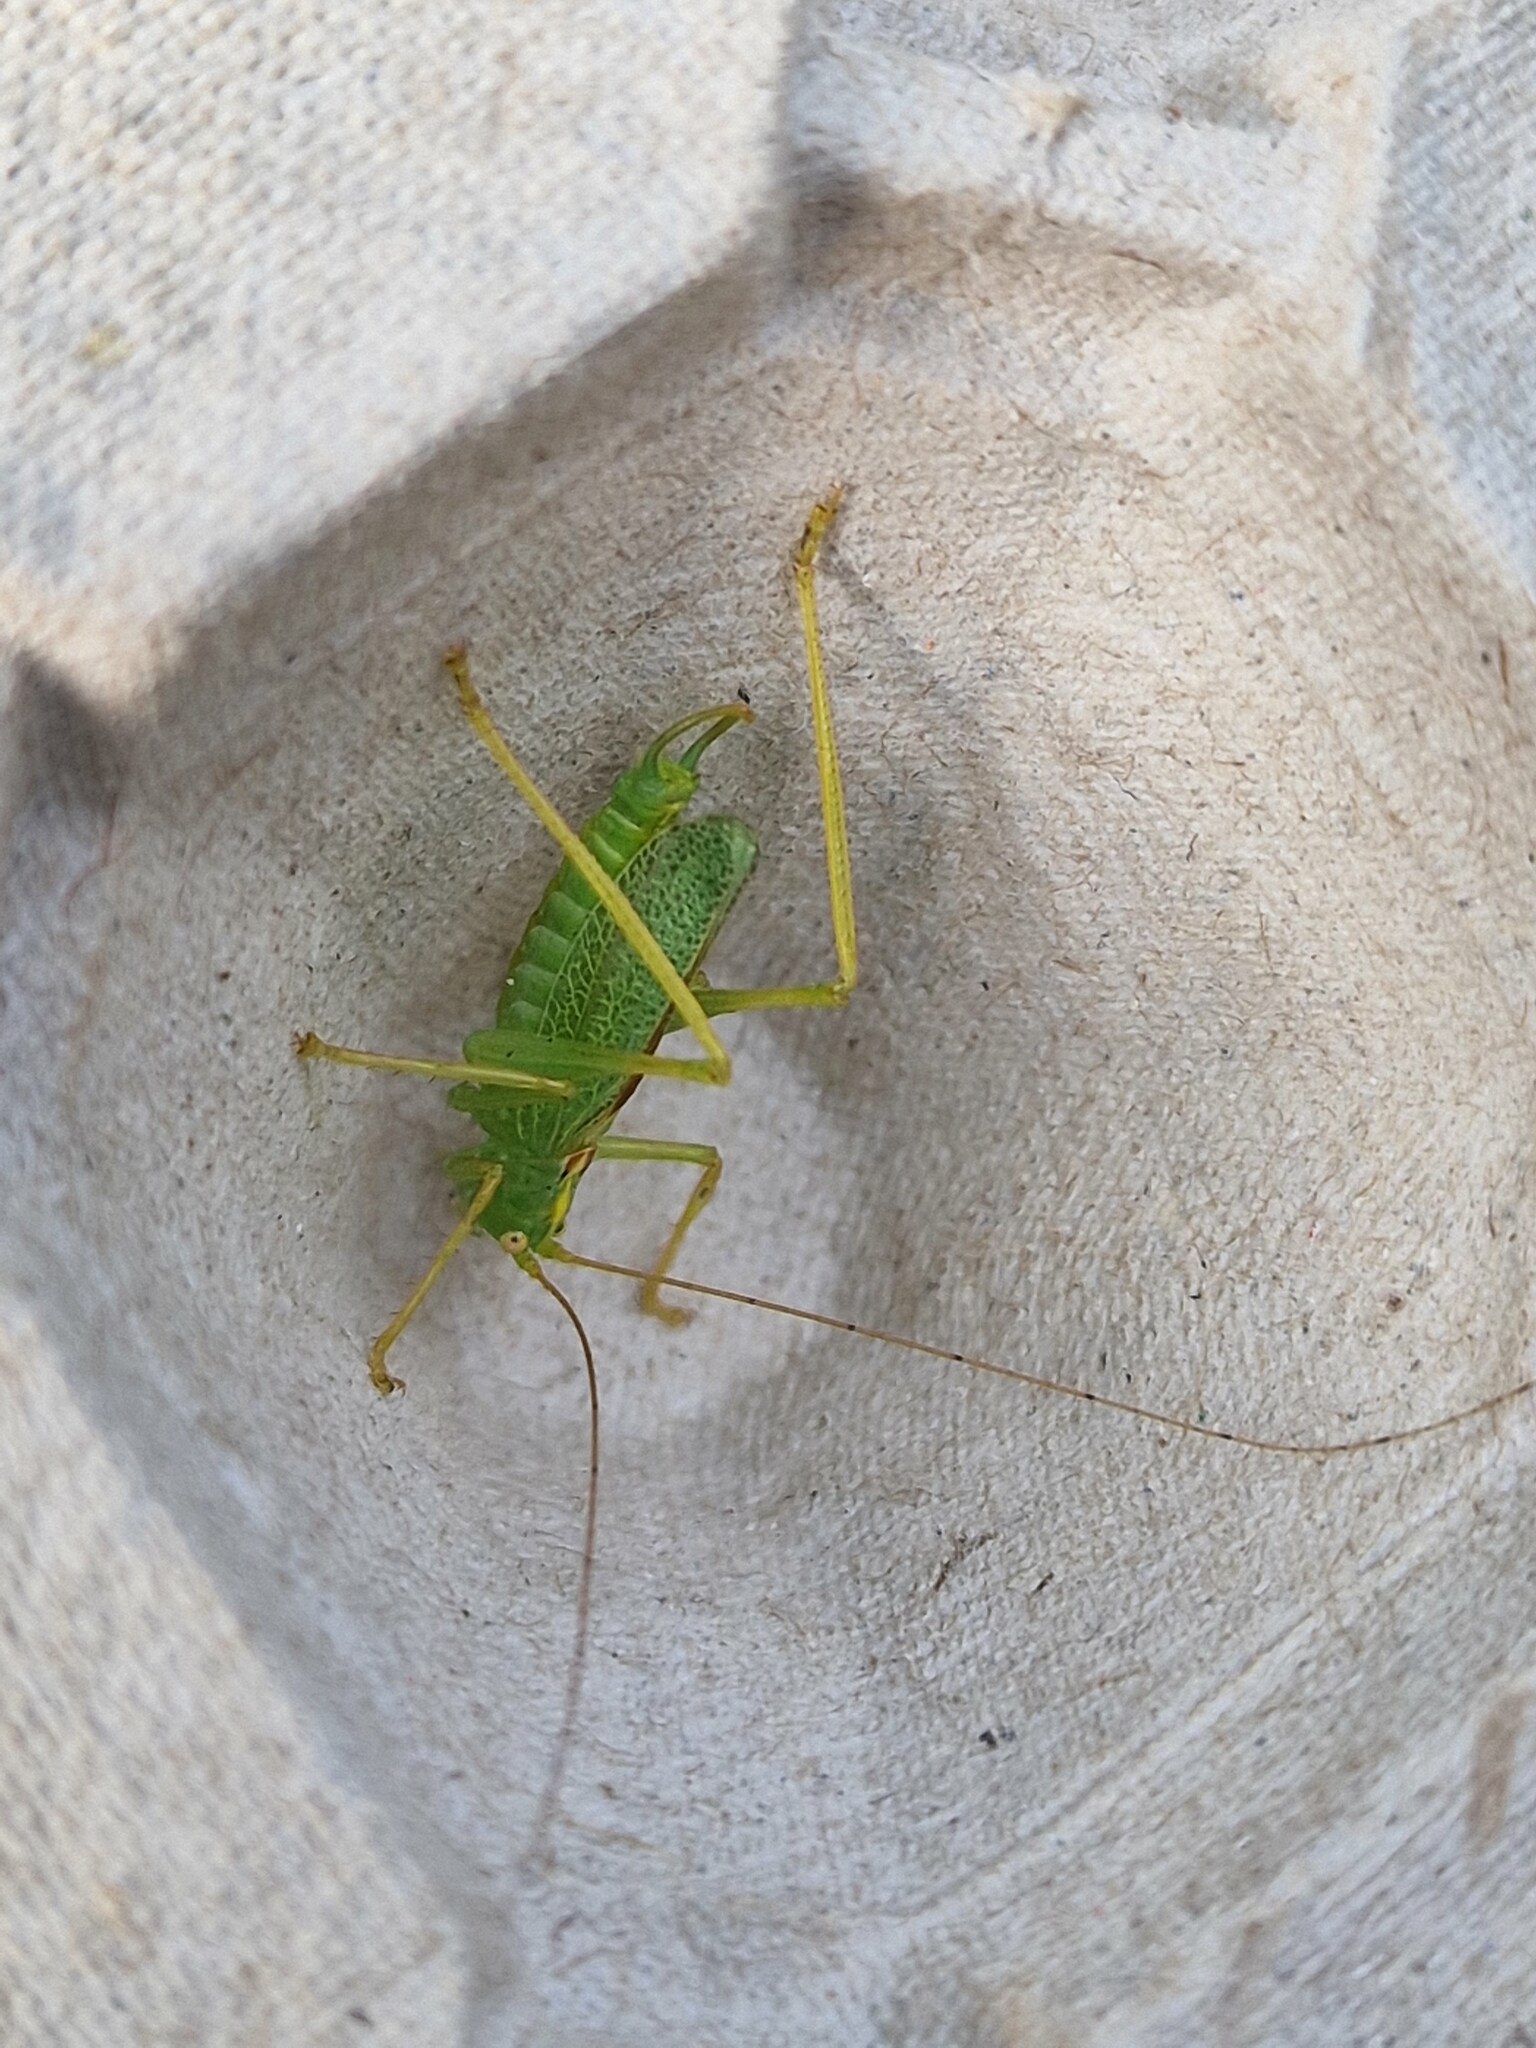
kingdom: Animalia
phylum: Arthropoda
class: Insecta
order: Orthoptera
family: Tettigoniidae
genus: Meconema
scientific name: Meconema thalassinum
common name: Oak bush-cricket
